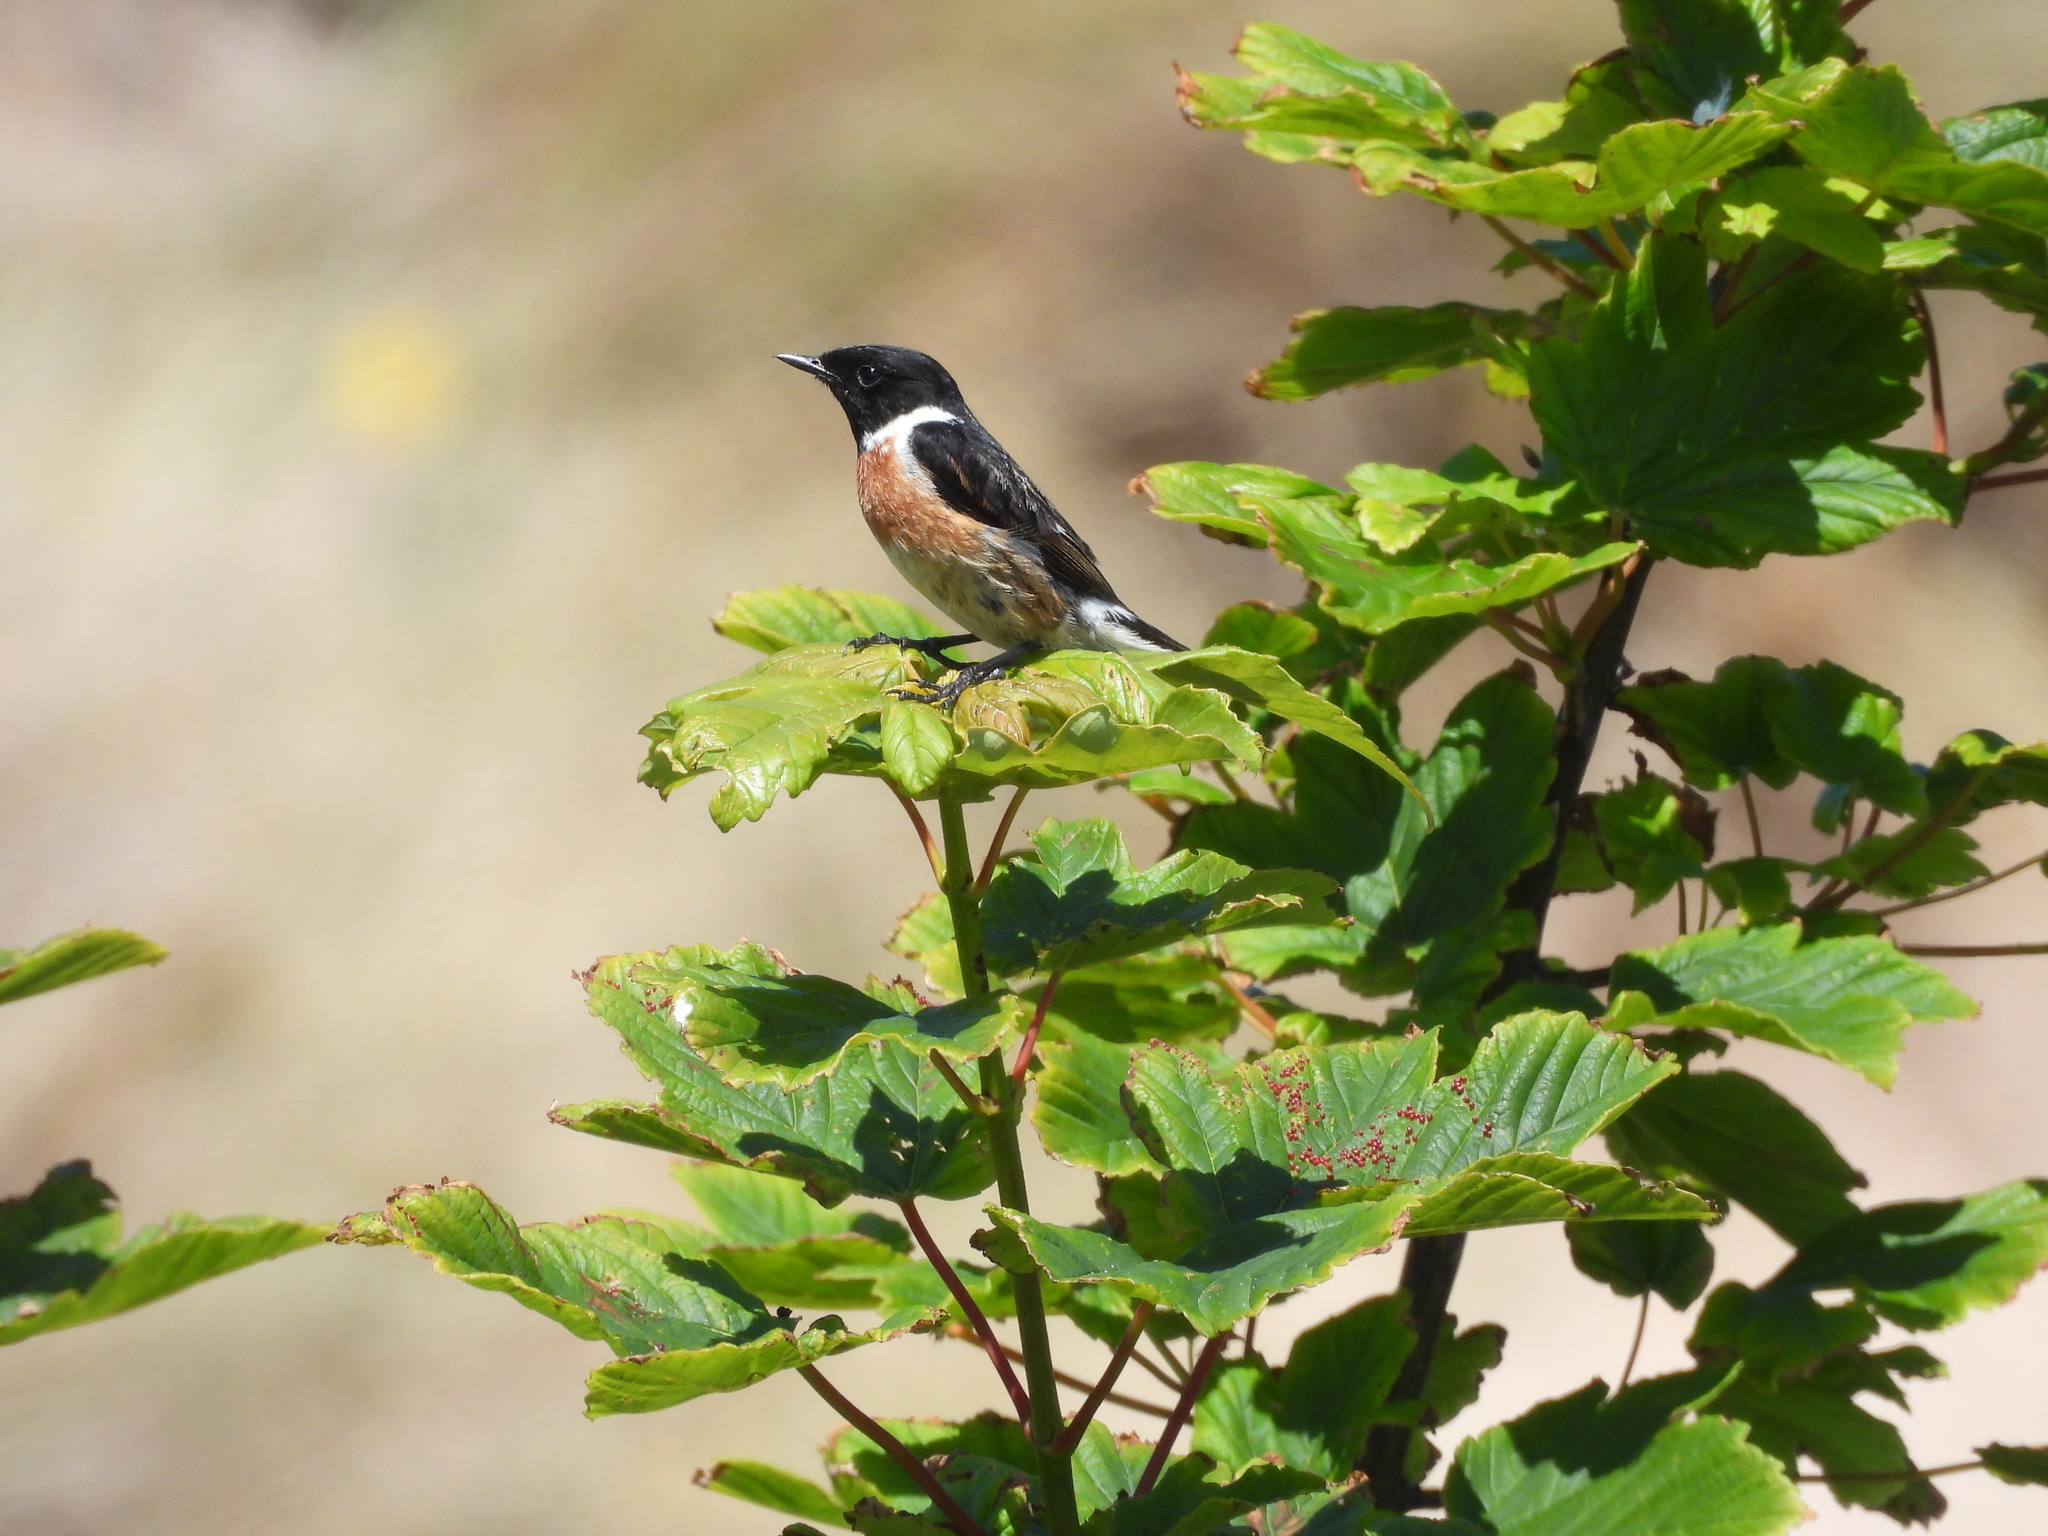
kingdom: Animalia
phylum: Chordata
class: Aves
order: Passeriformes
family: Muscicapidae
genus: Saxicola
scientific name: Saxicola rubicola
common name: European stonechat
